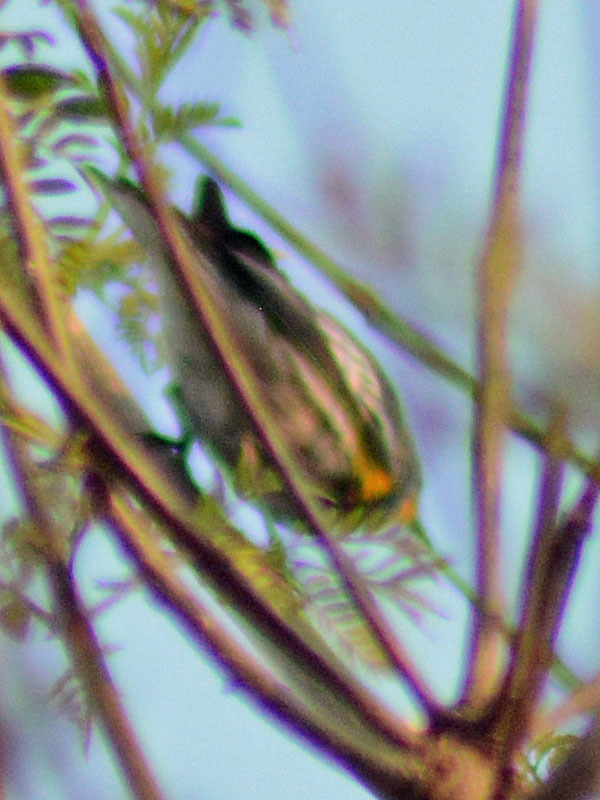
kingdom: Animalia
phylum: Chordata
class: Aves
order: Passeriformes
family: Parulidae
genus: Setophaga
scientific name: Setophaga auduboni
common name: Audubon's warbler
